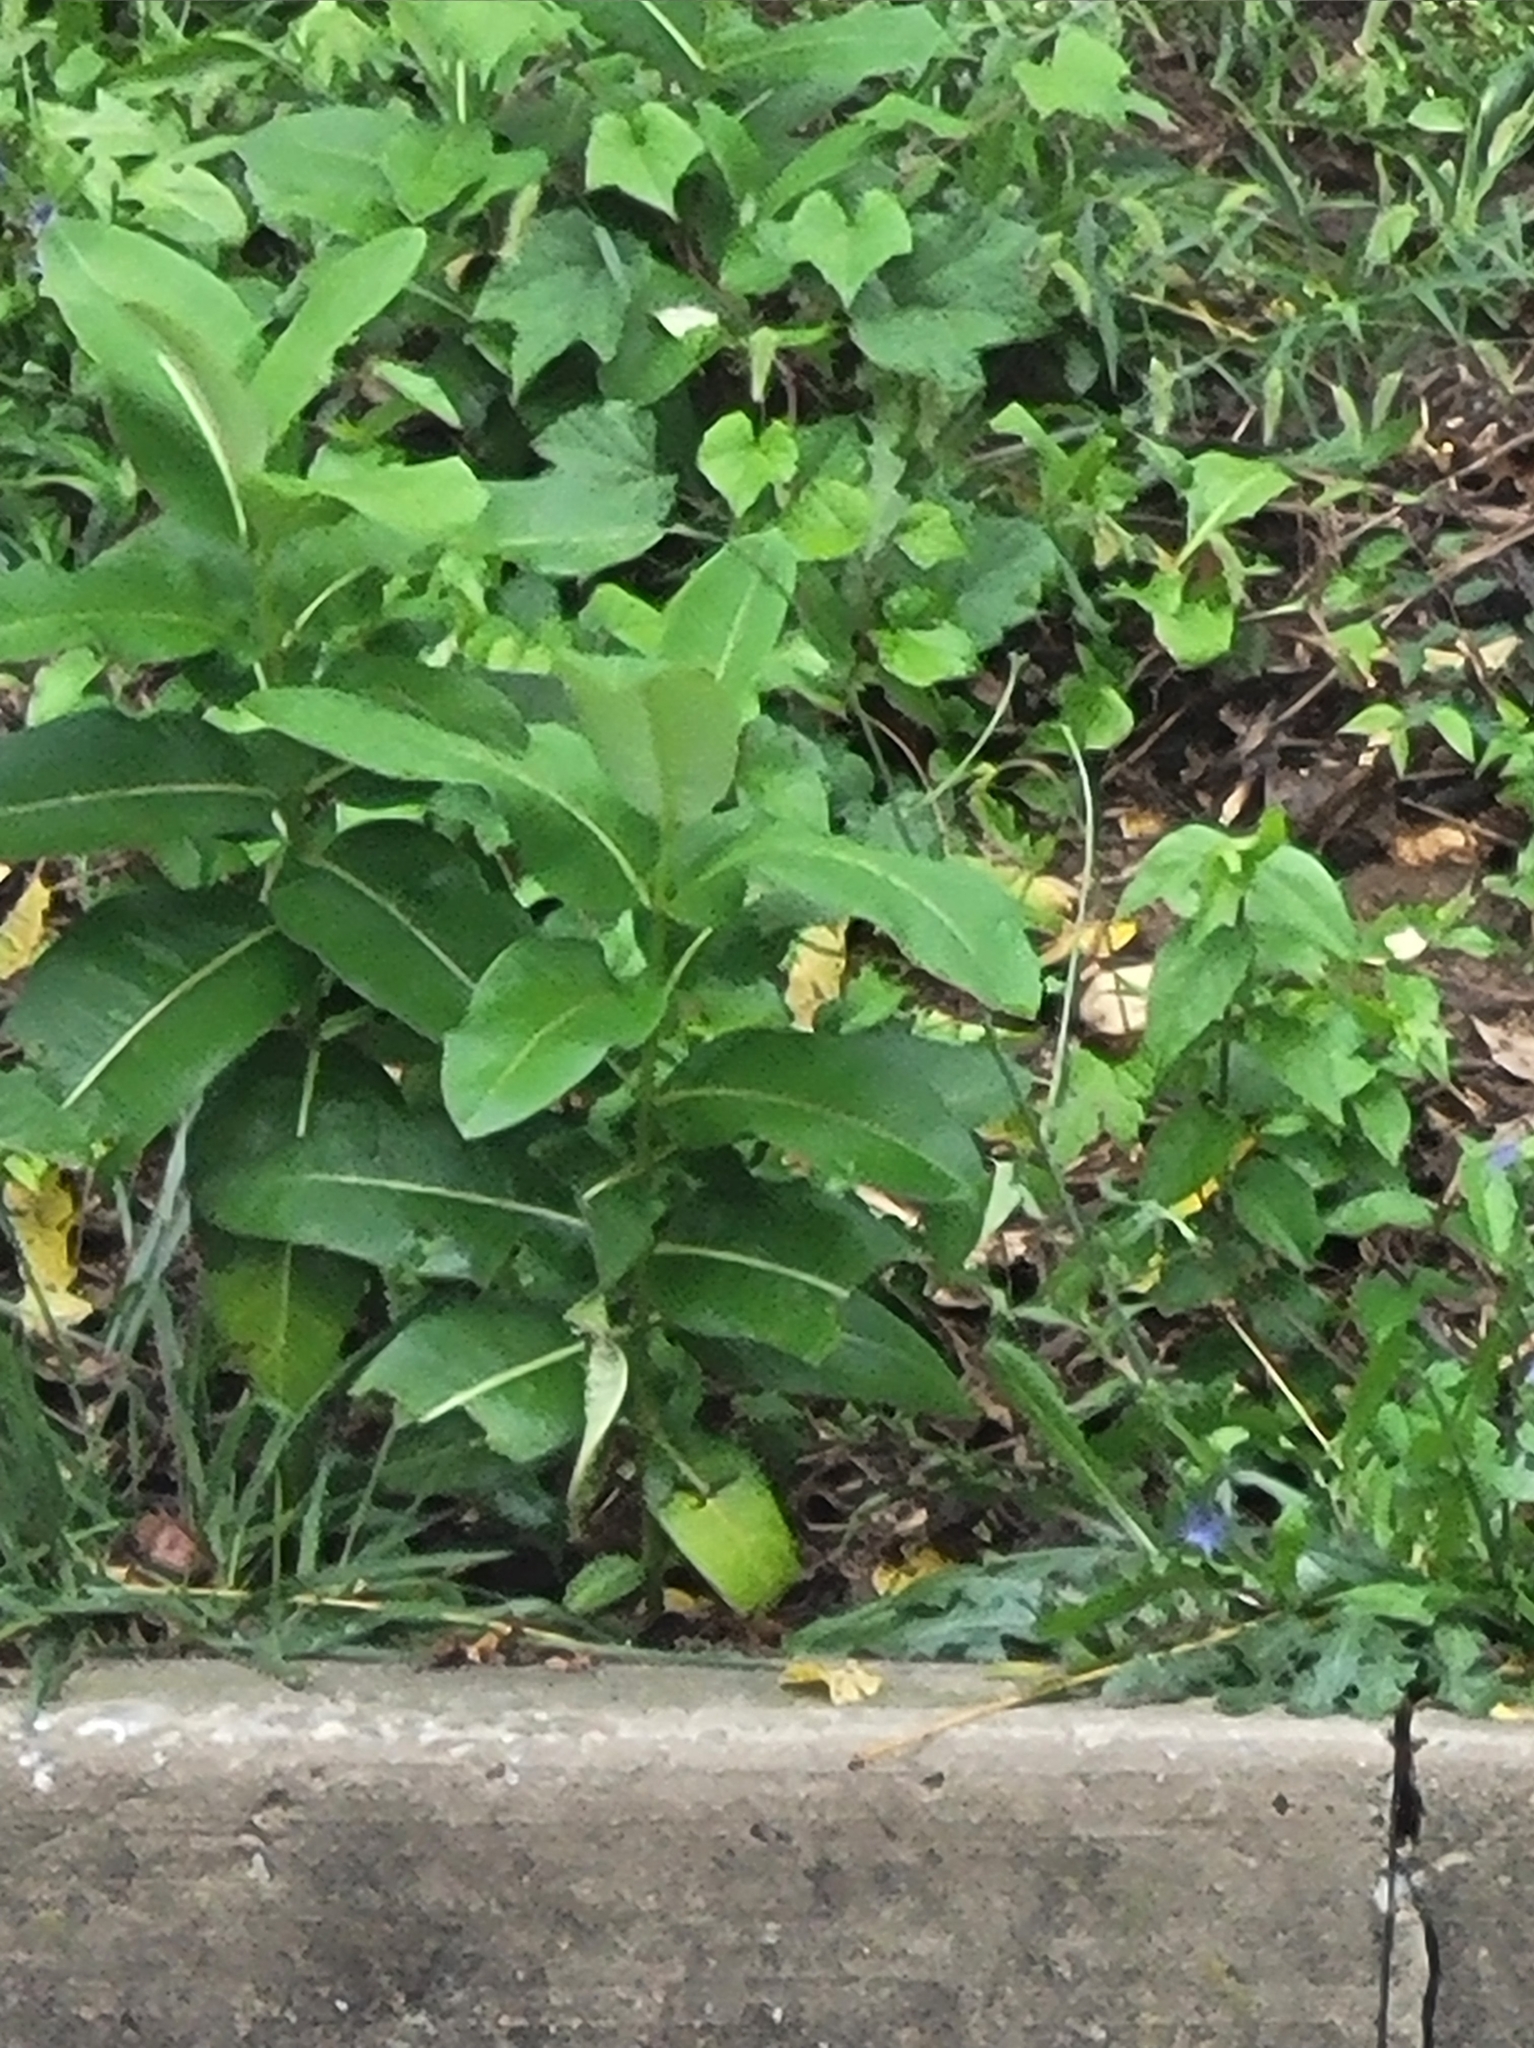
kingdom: Plantae
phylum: Tracheophyta
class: Magnoliopsida
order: Gentianales
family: Apocynaceae
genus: Asclepias
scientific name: Asclepias syriaca
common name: Common milkweed
